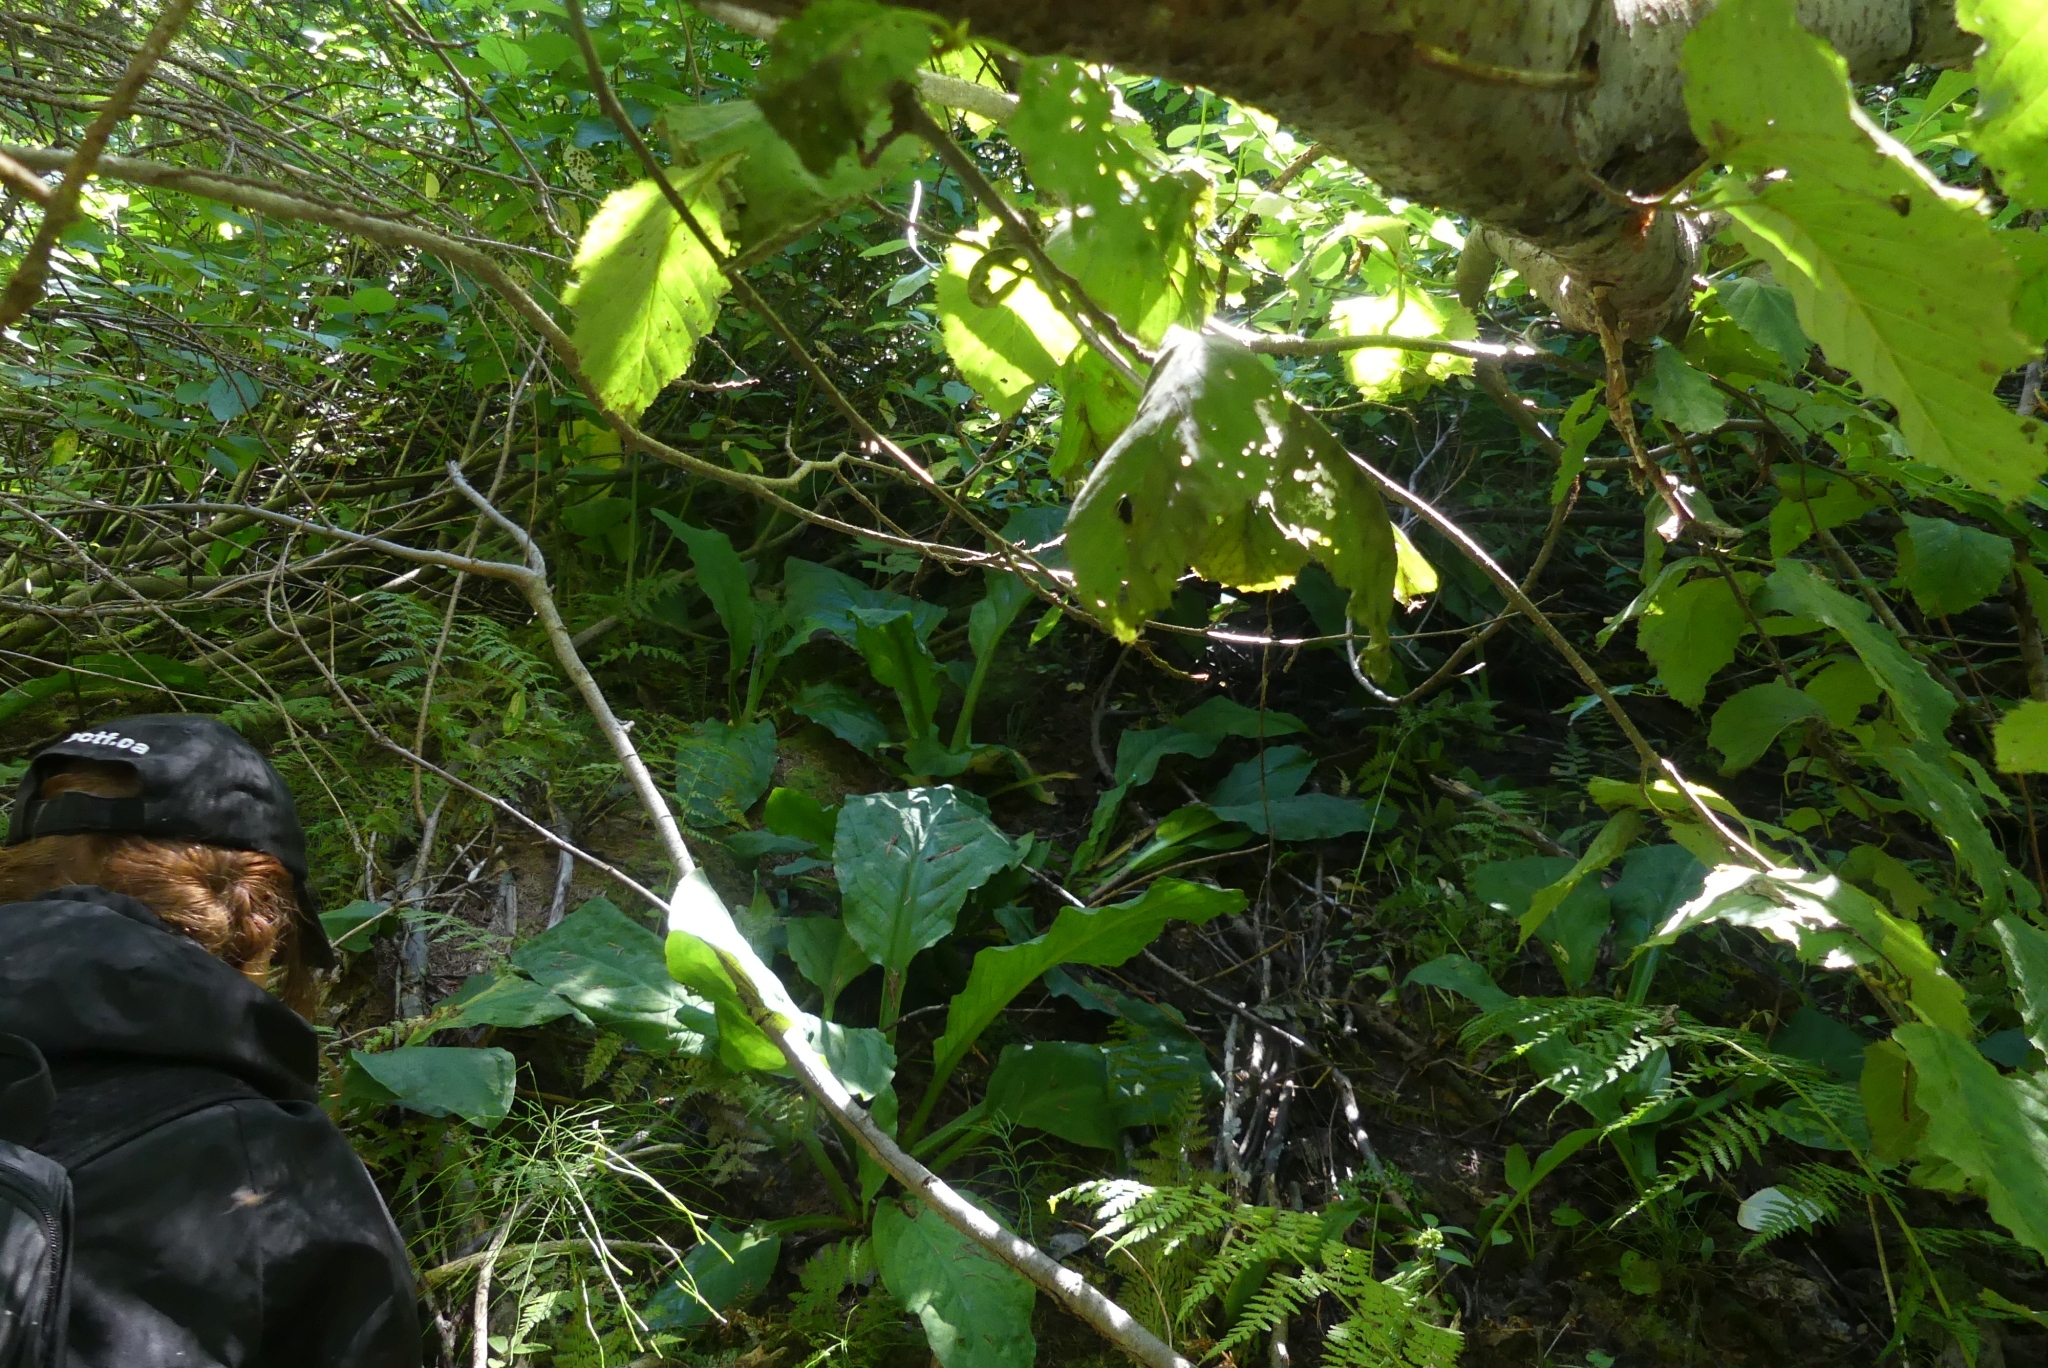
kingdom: Plantae
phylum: Tracheophyta
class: Liliopsida
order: Alismatales
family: Araceae
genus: Lysichiton
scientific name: Lysichiton americanus
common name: American skunk cabbage
